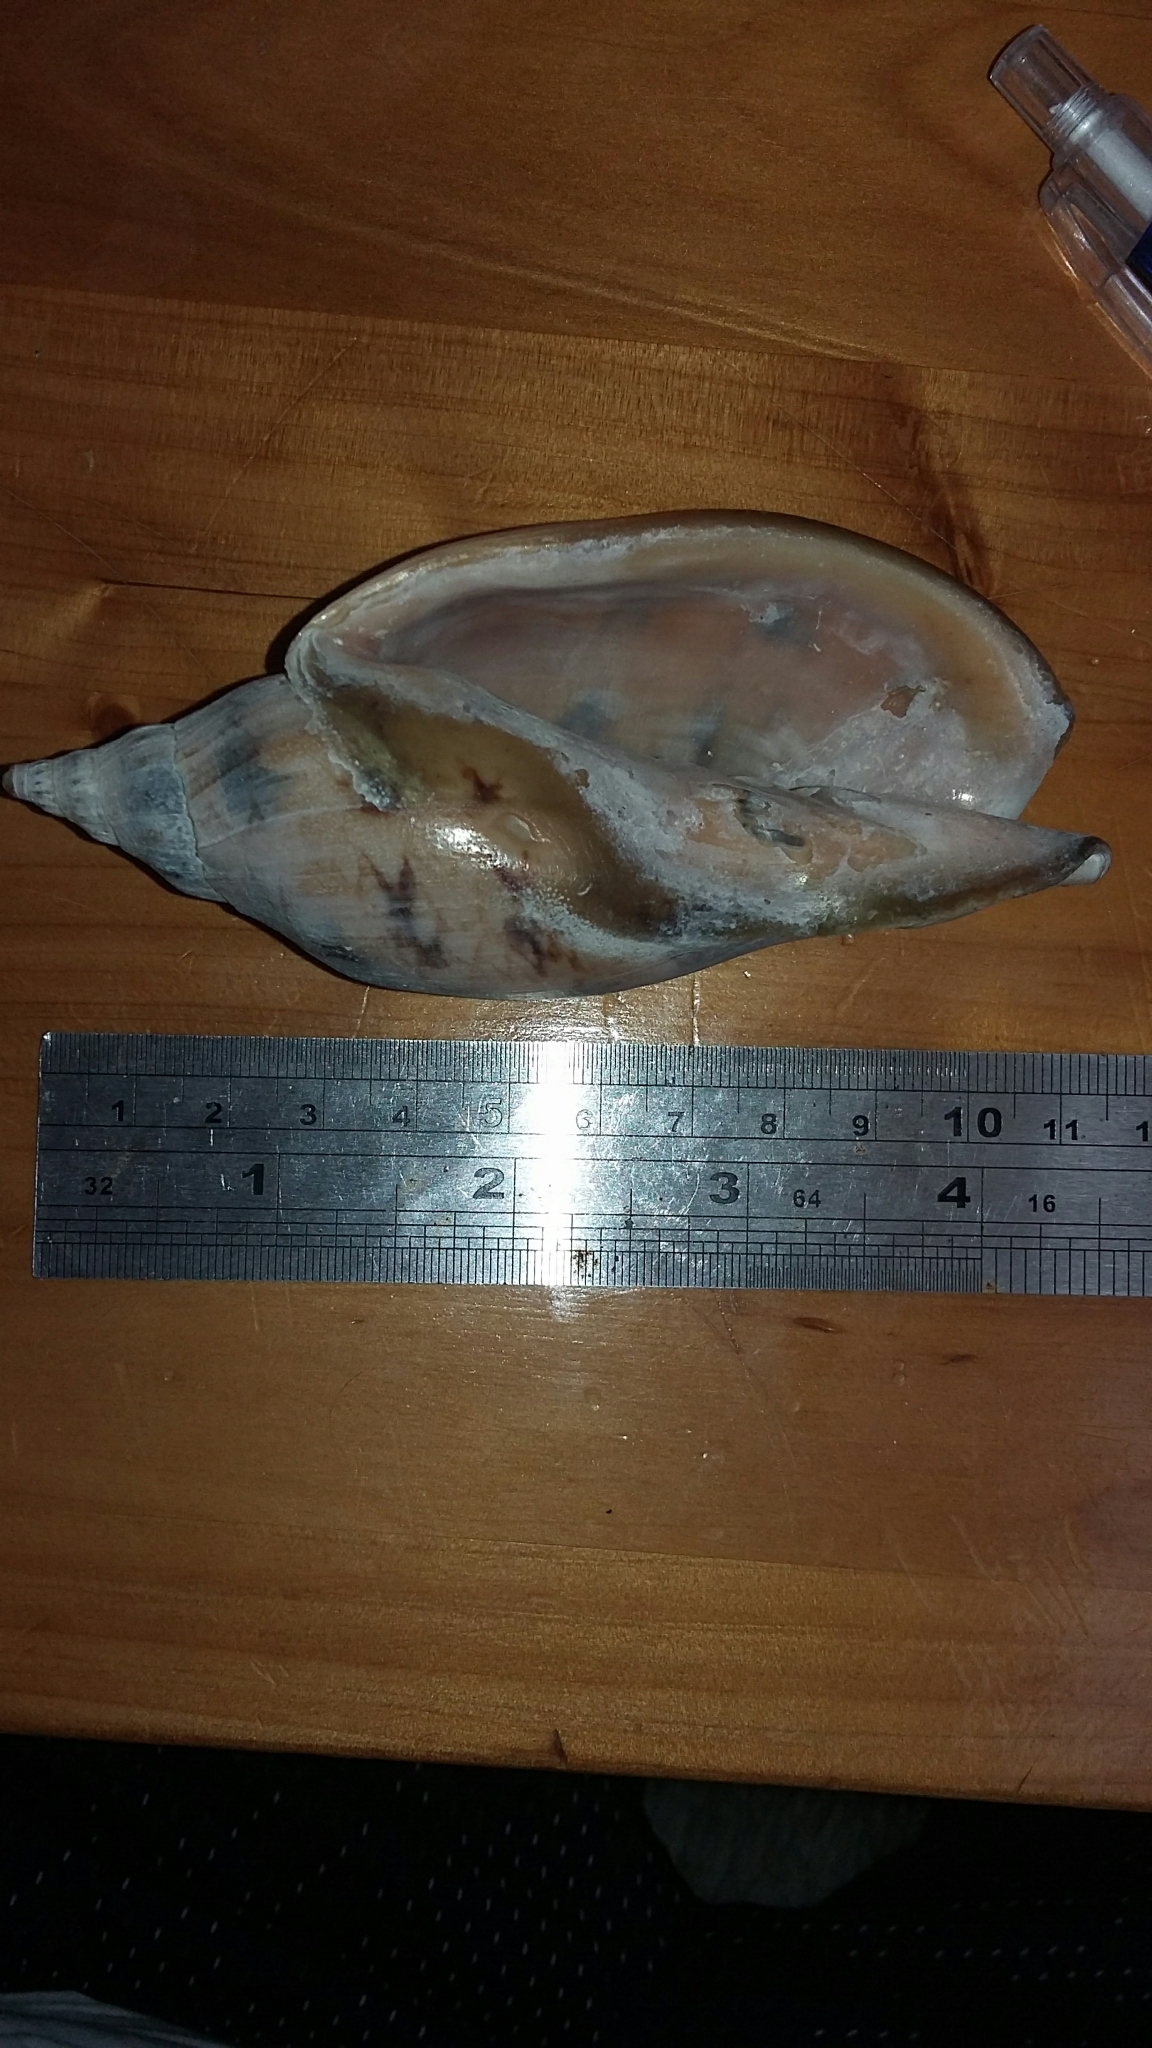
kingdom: Animalia
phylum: Mollusca
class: Gastropoda
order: Neogastropoda
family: Volutidae
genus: Alcithoe
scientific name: Alcithoe arabica
